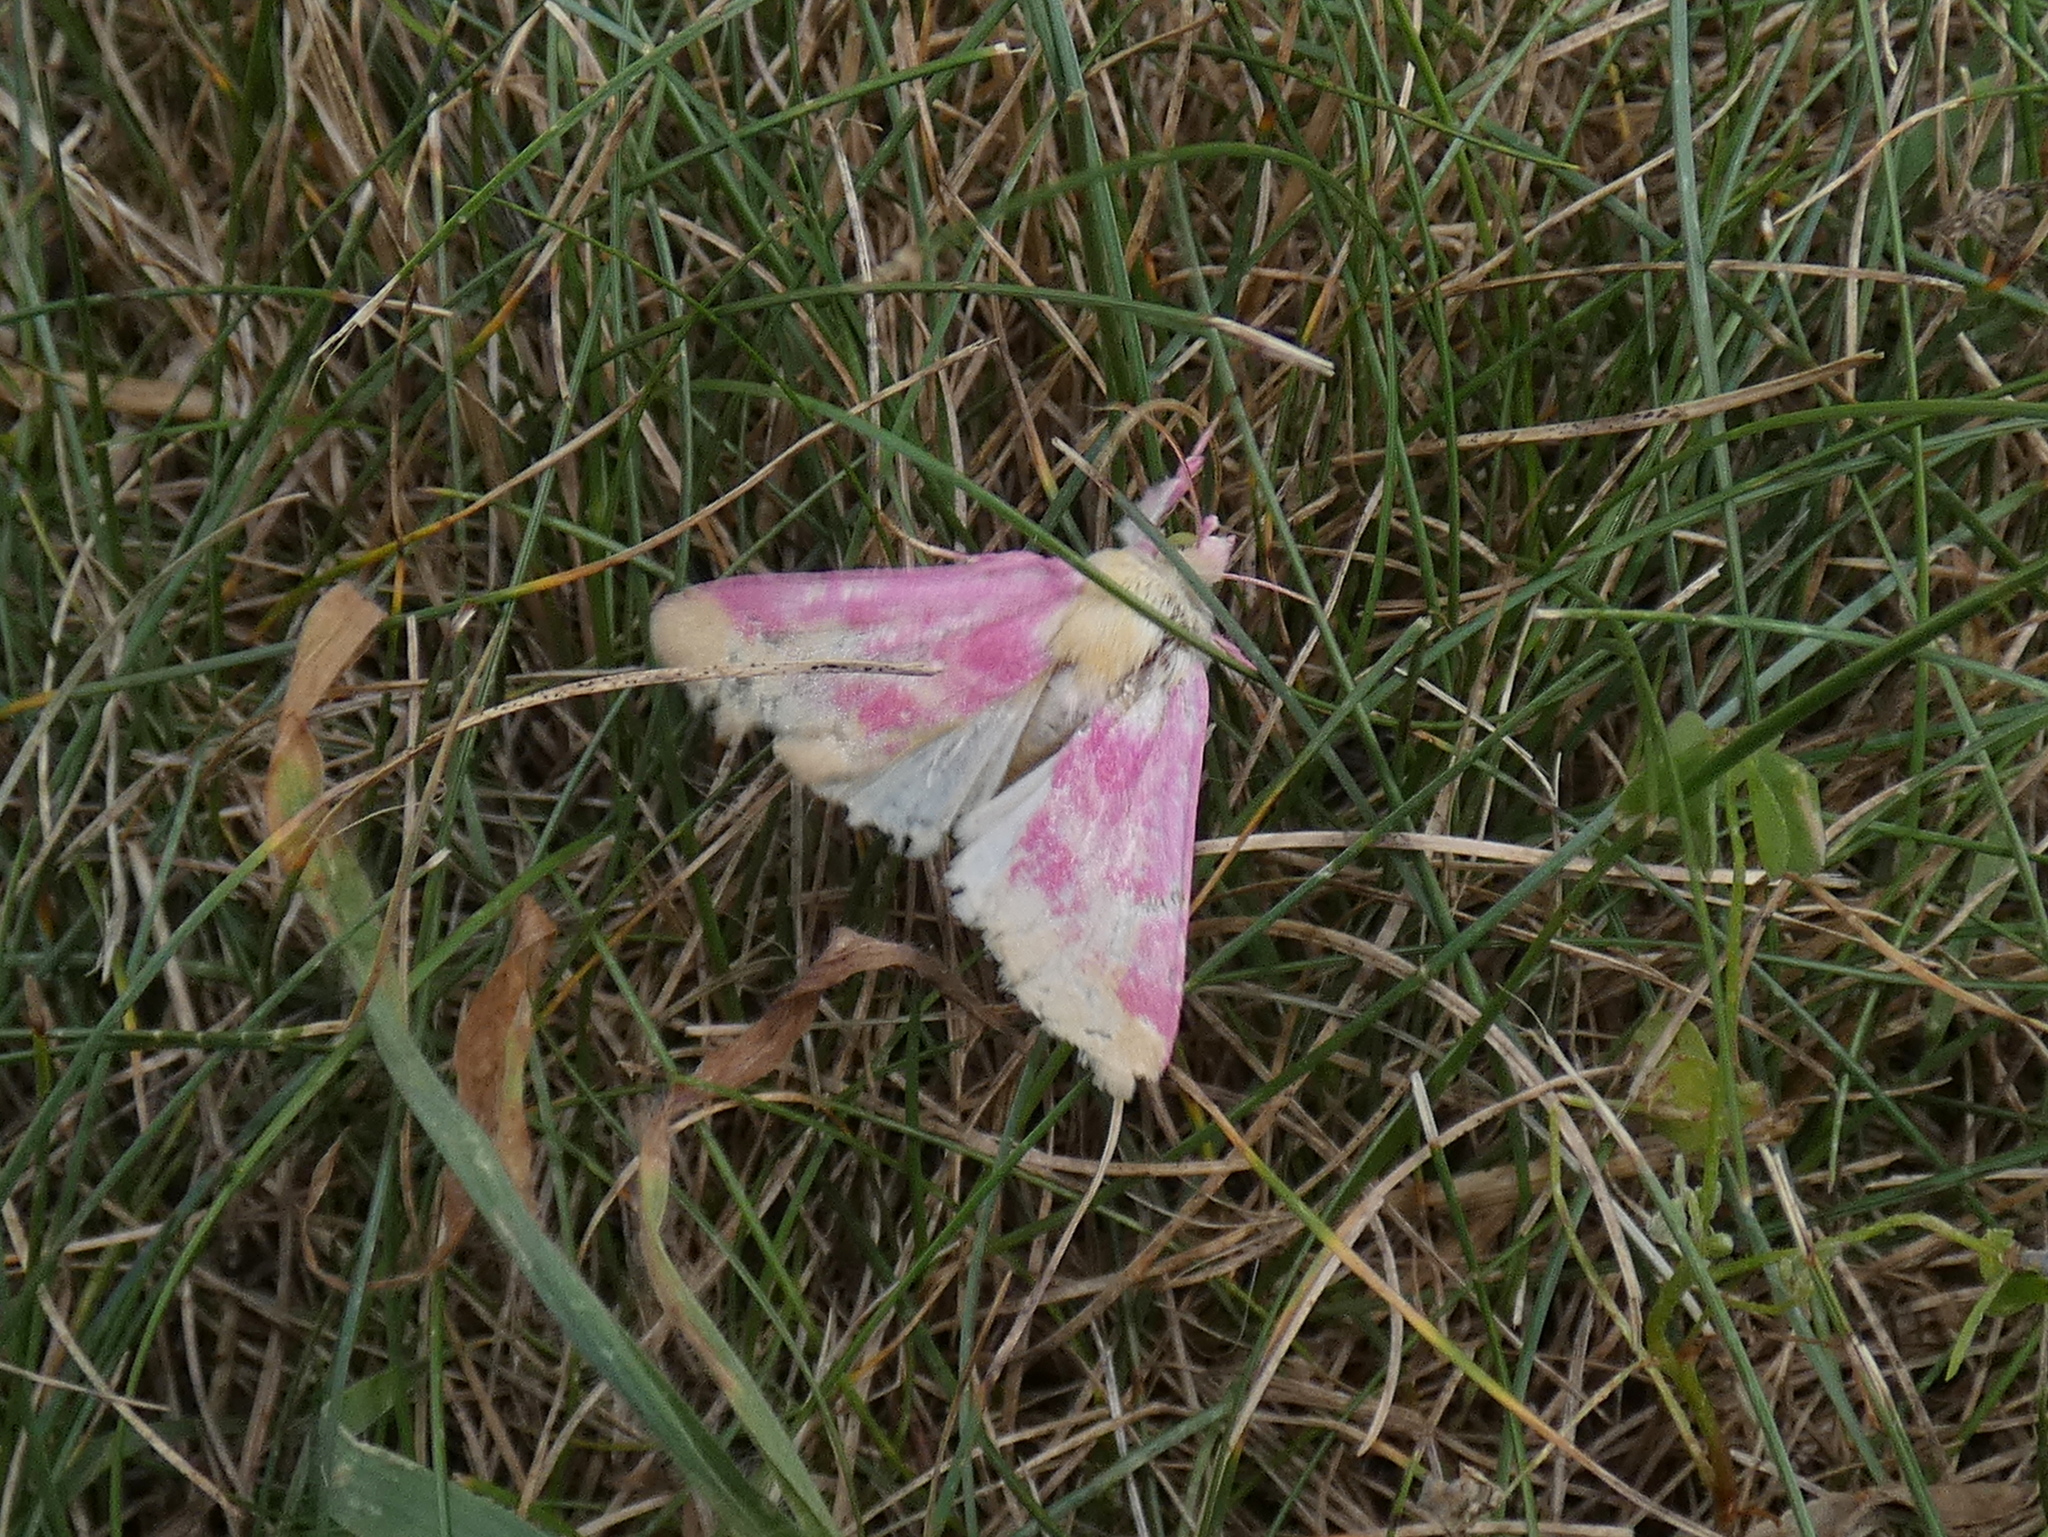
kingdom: Animalia
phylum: Arthropoda
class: Insecta
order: Lepidoptera
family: Noctuidae
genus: Schinia
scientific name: Schinia florida
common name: Primrose moth
